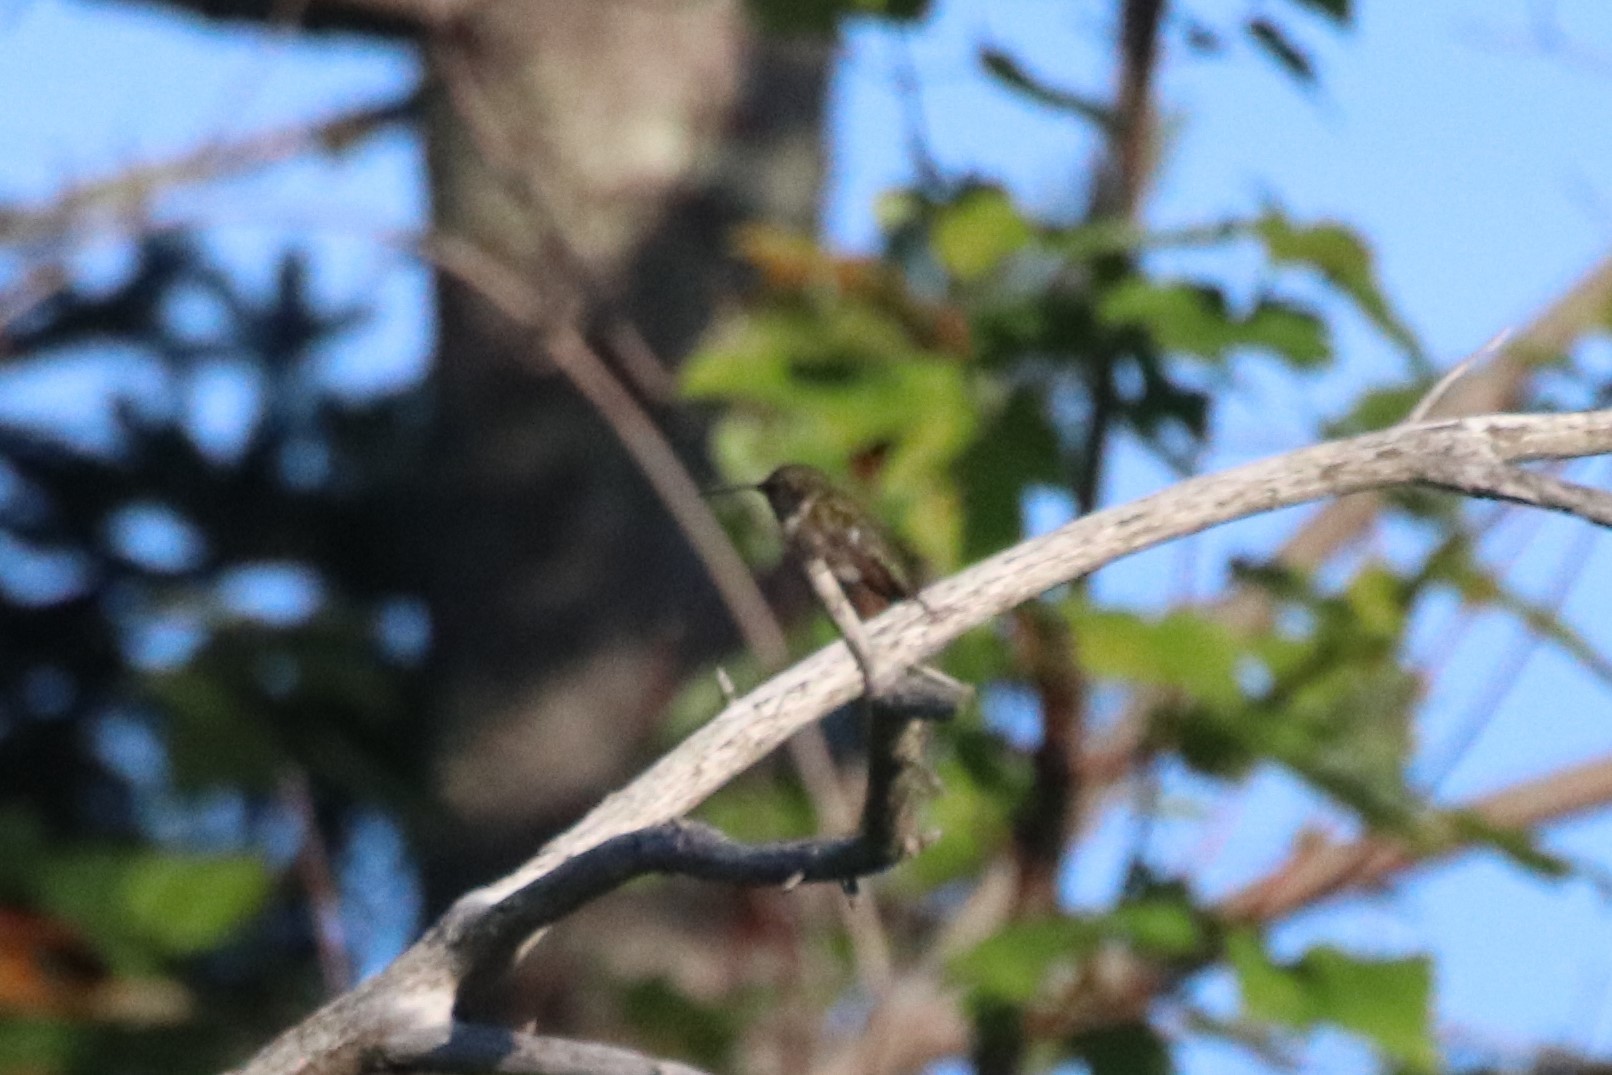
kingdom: Animalia
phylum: Chordata
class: Aves
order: Apodiformes
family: Trochilidae
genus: Archilochus
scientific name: Archilochus colubris
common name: Ruby-throated hummingbird
